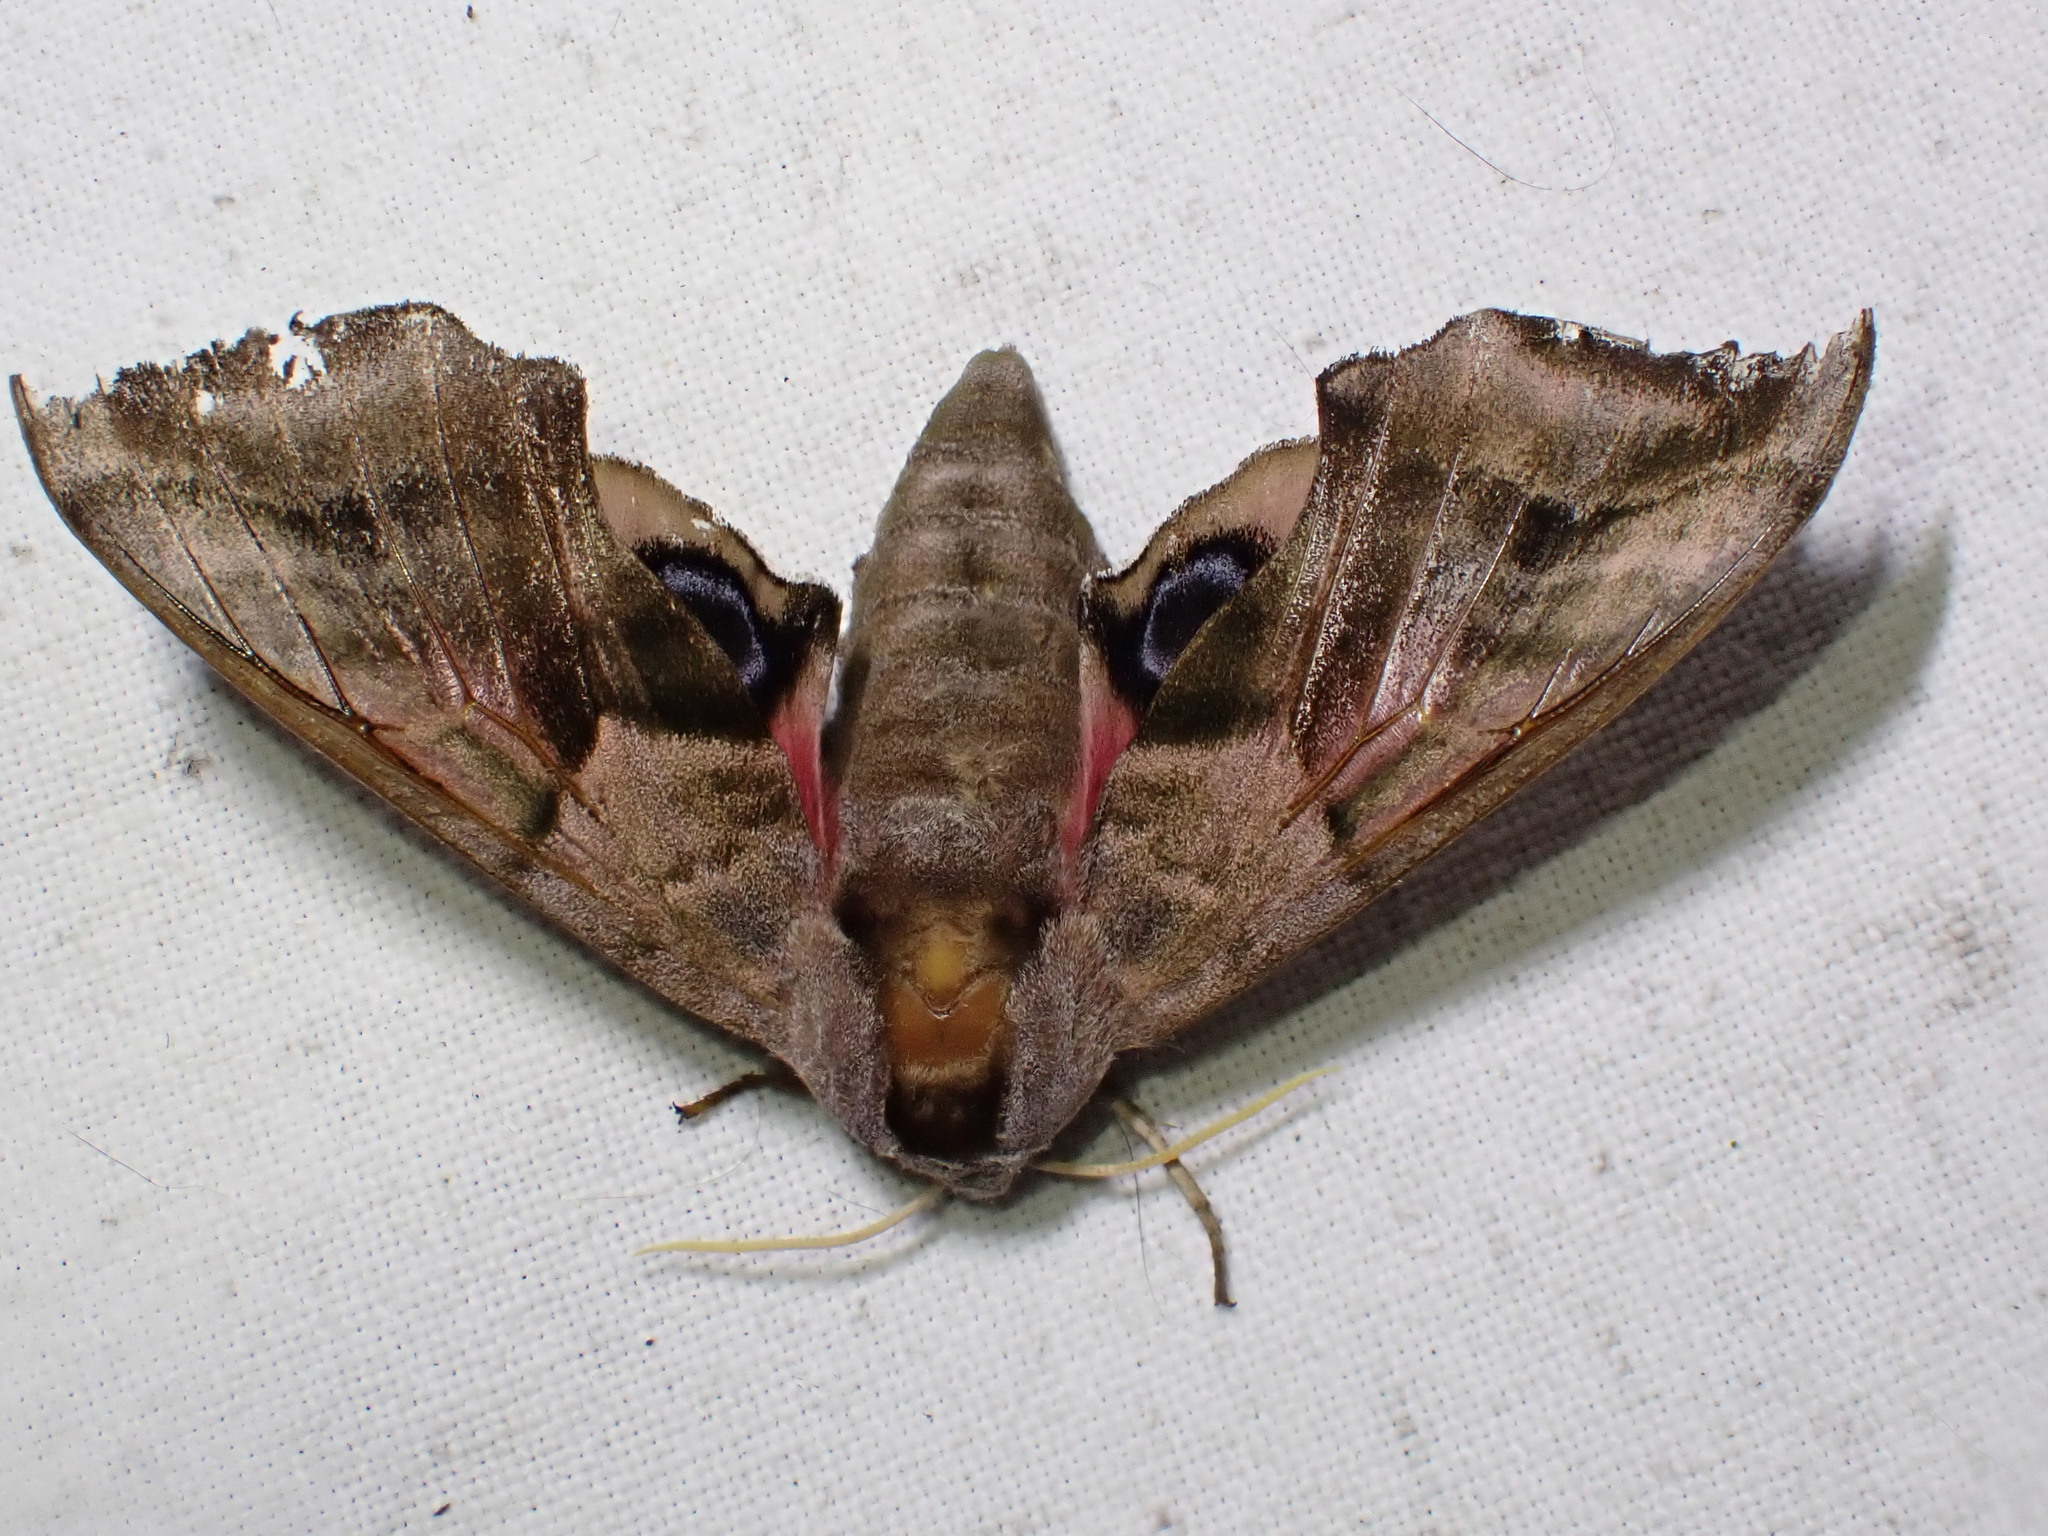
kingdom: Animalia
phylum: Arthropoda
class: Insecta
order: Lepidoptera
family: Sphingidae
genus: Smerinthus
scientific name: Smerinthus ocellata
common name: Eyed hawk-moth
